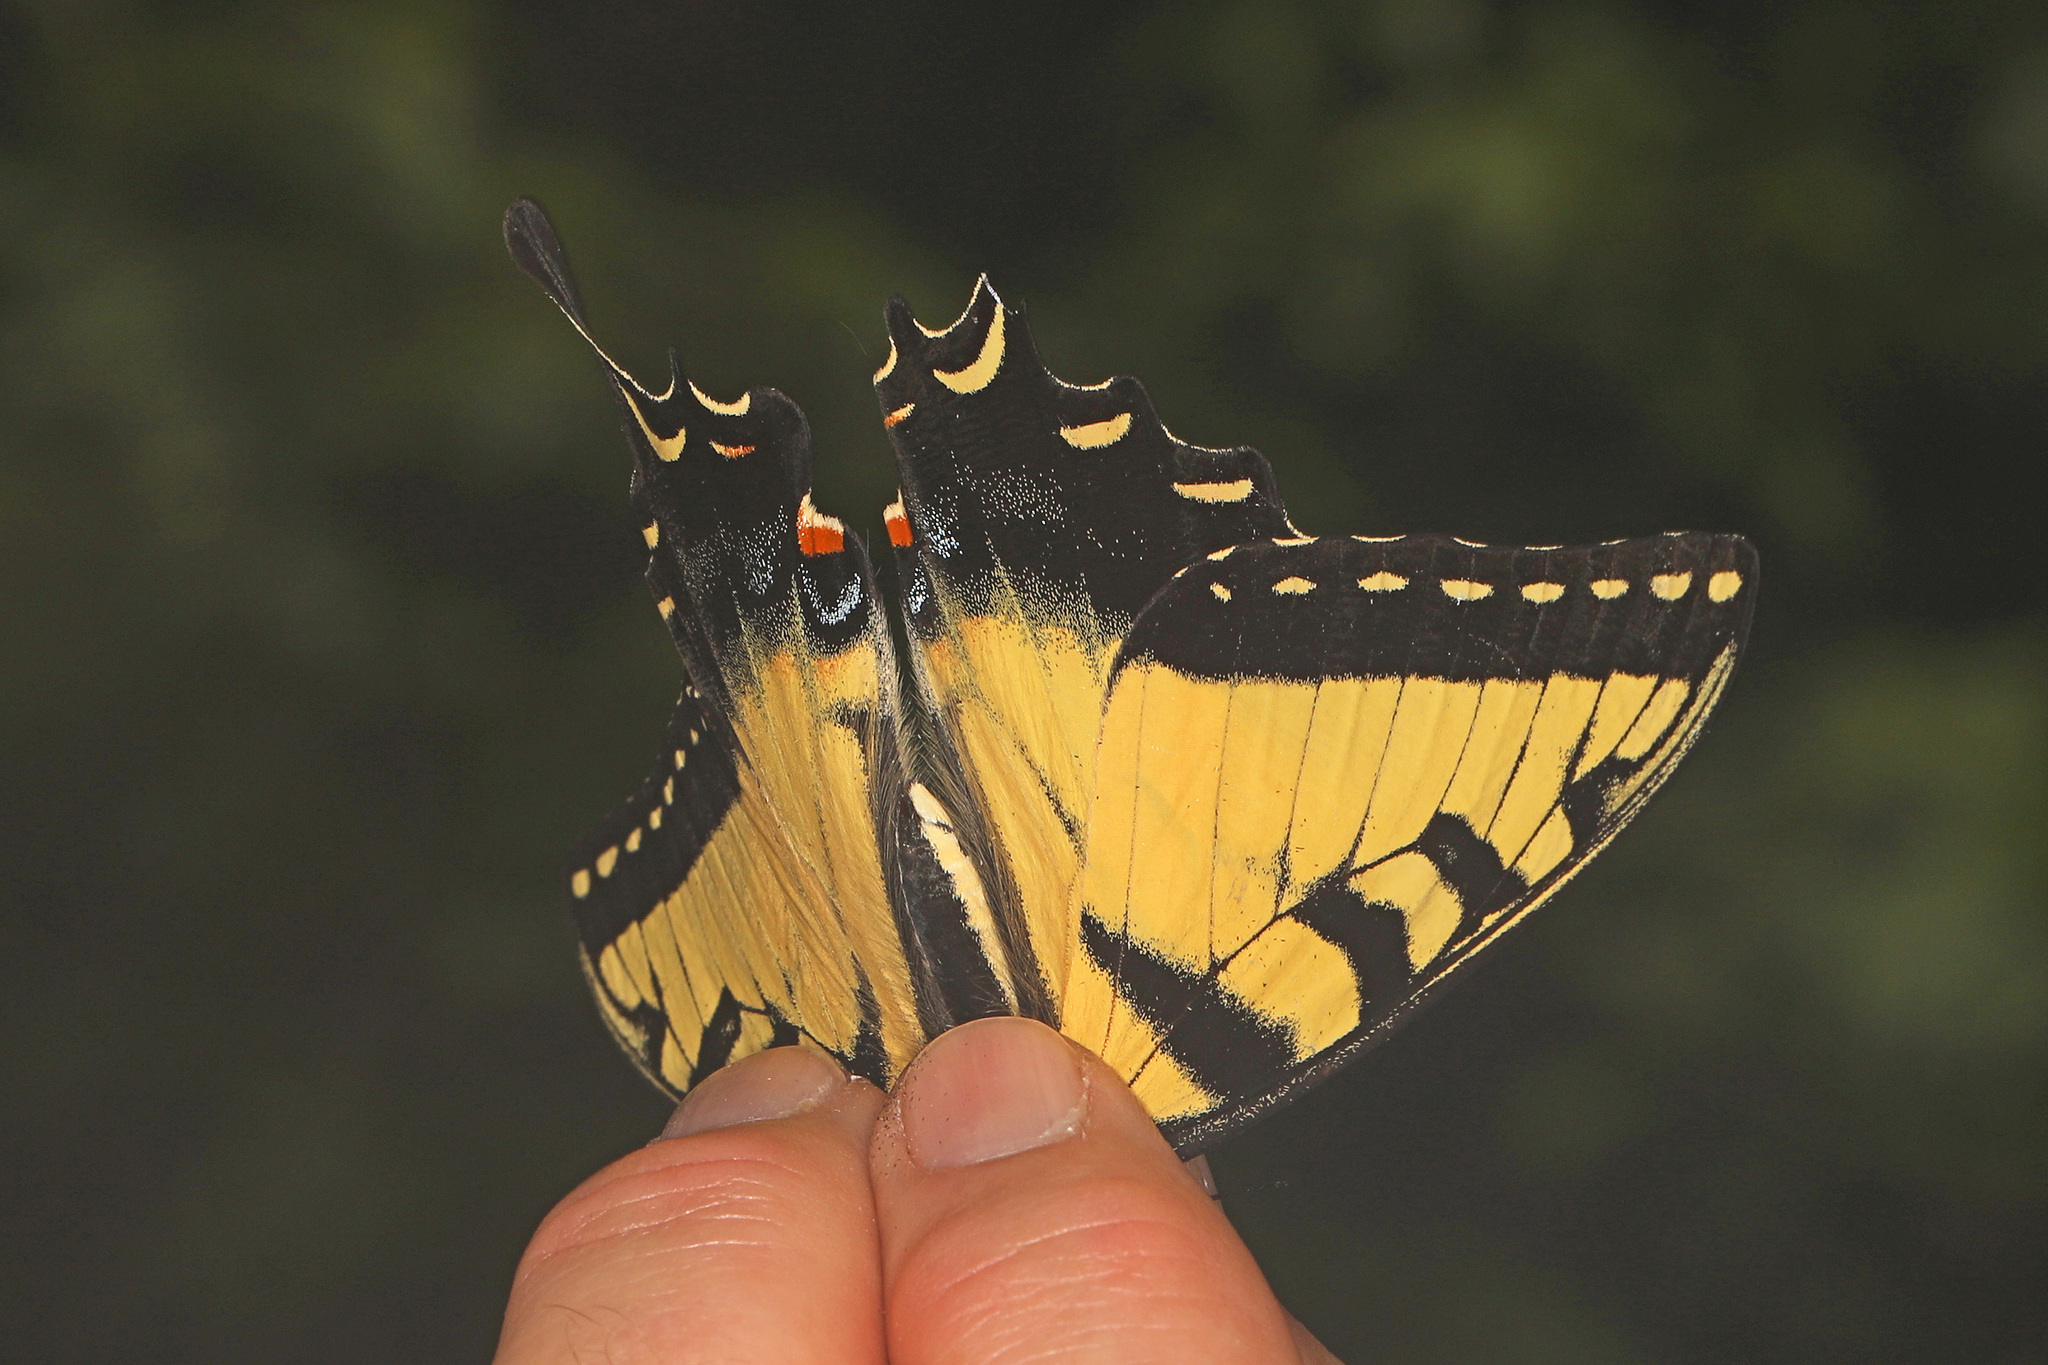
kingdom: Animalia
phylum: Arthropoda
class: Insecta
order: Lepidoptera
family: Papilionidae
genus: Papilio
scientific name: Papilio glaucus
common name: Tiger swallowtail
